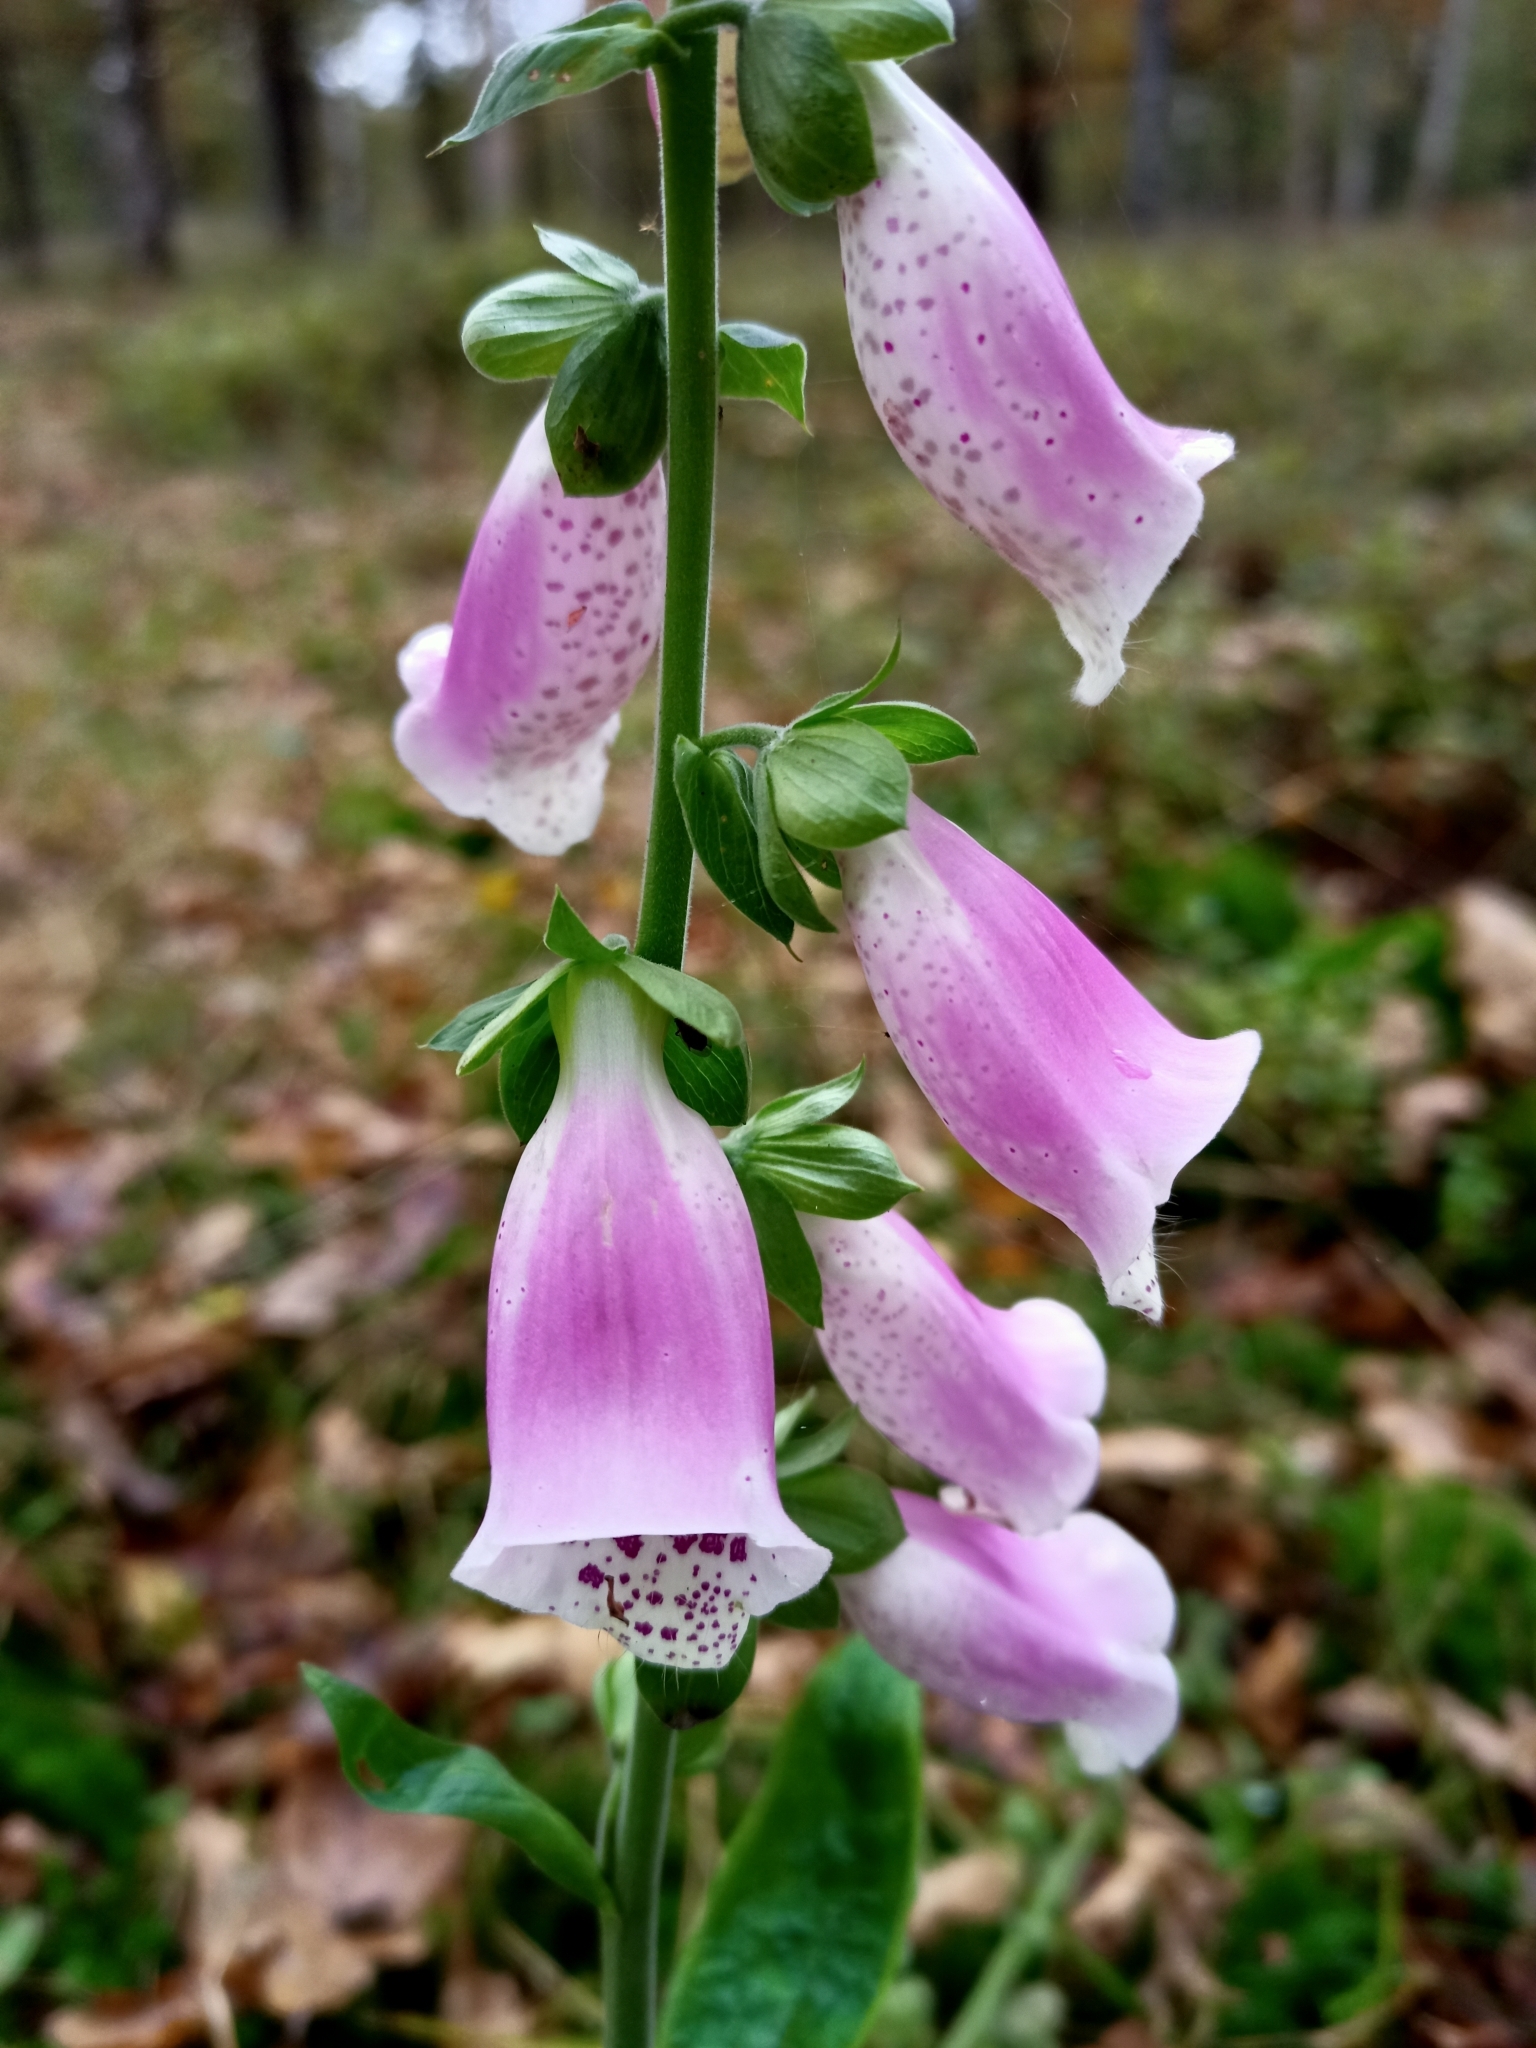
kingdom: Plantae
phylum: Tracheophyta
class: Magnoliopsida
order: Lamiales
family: Plantaginaceae
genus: Digitalis
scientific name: Digitalis purpurea
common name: Foxglove
